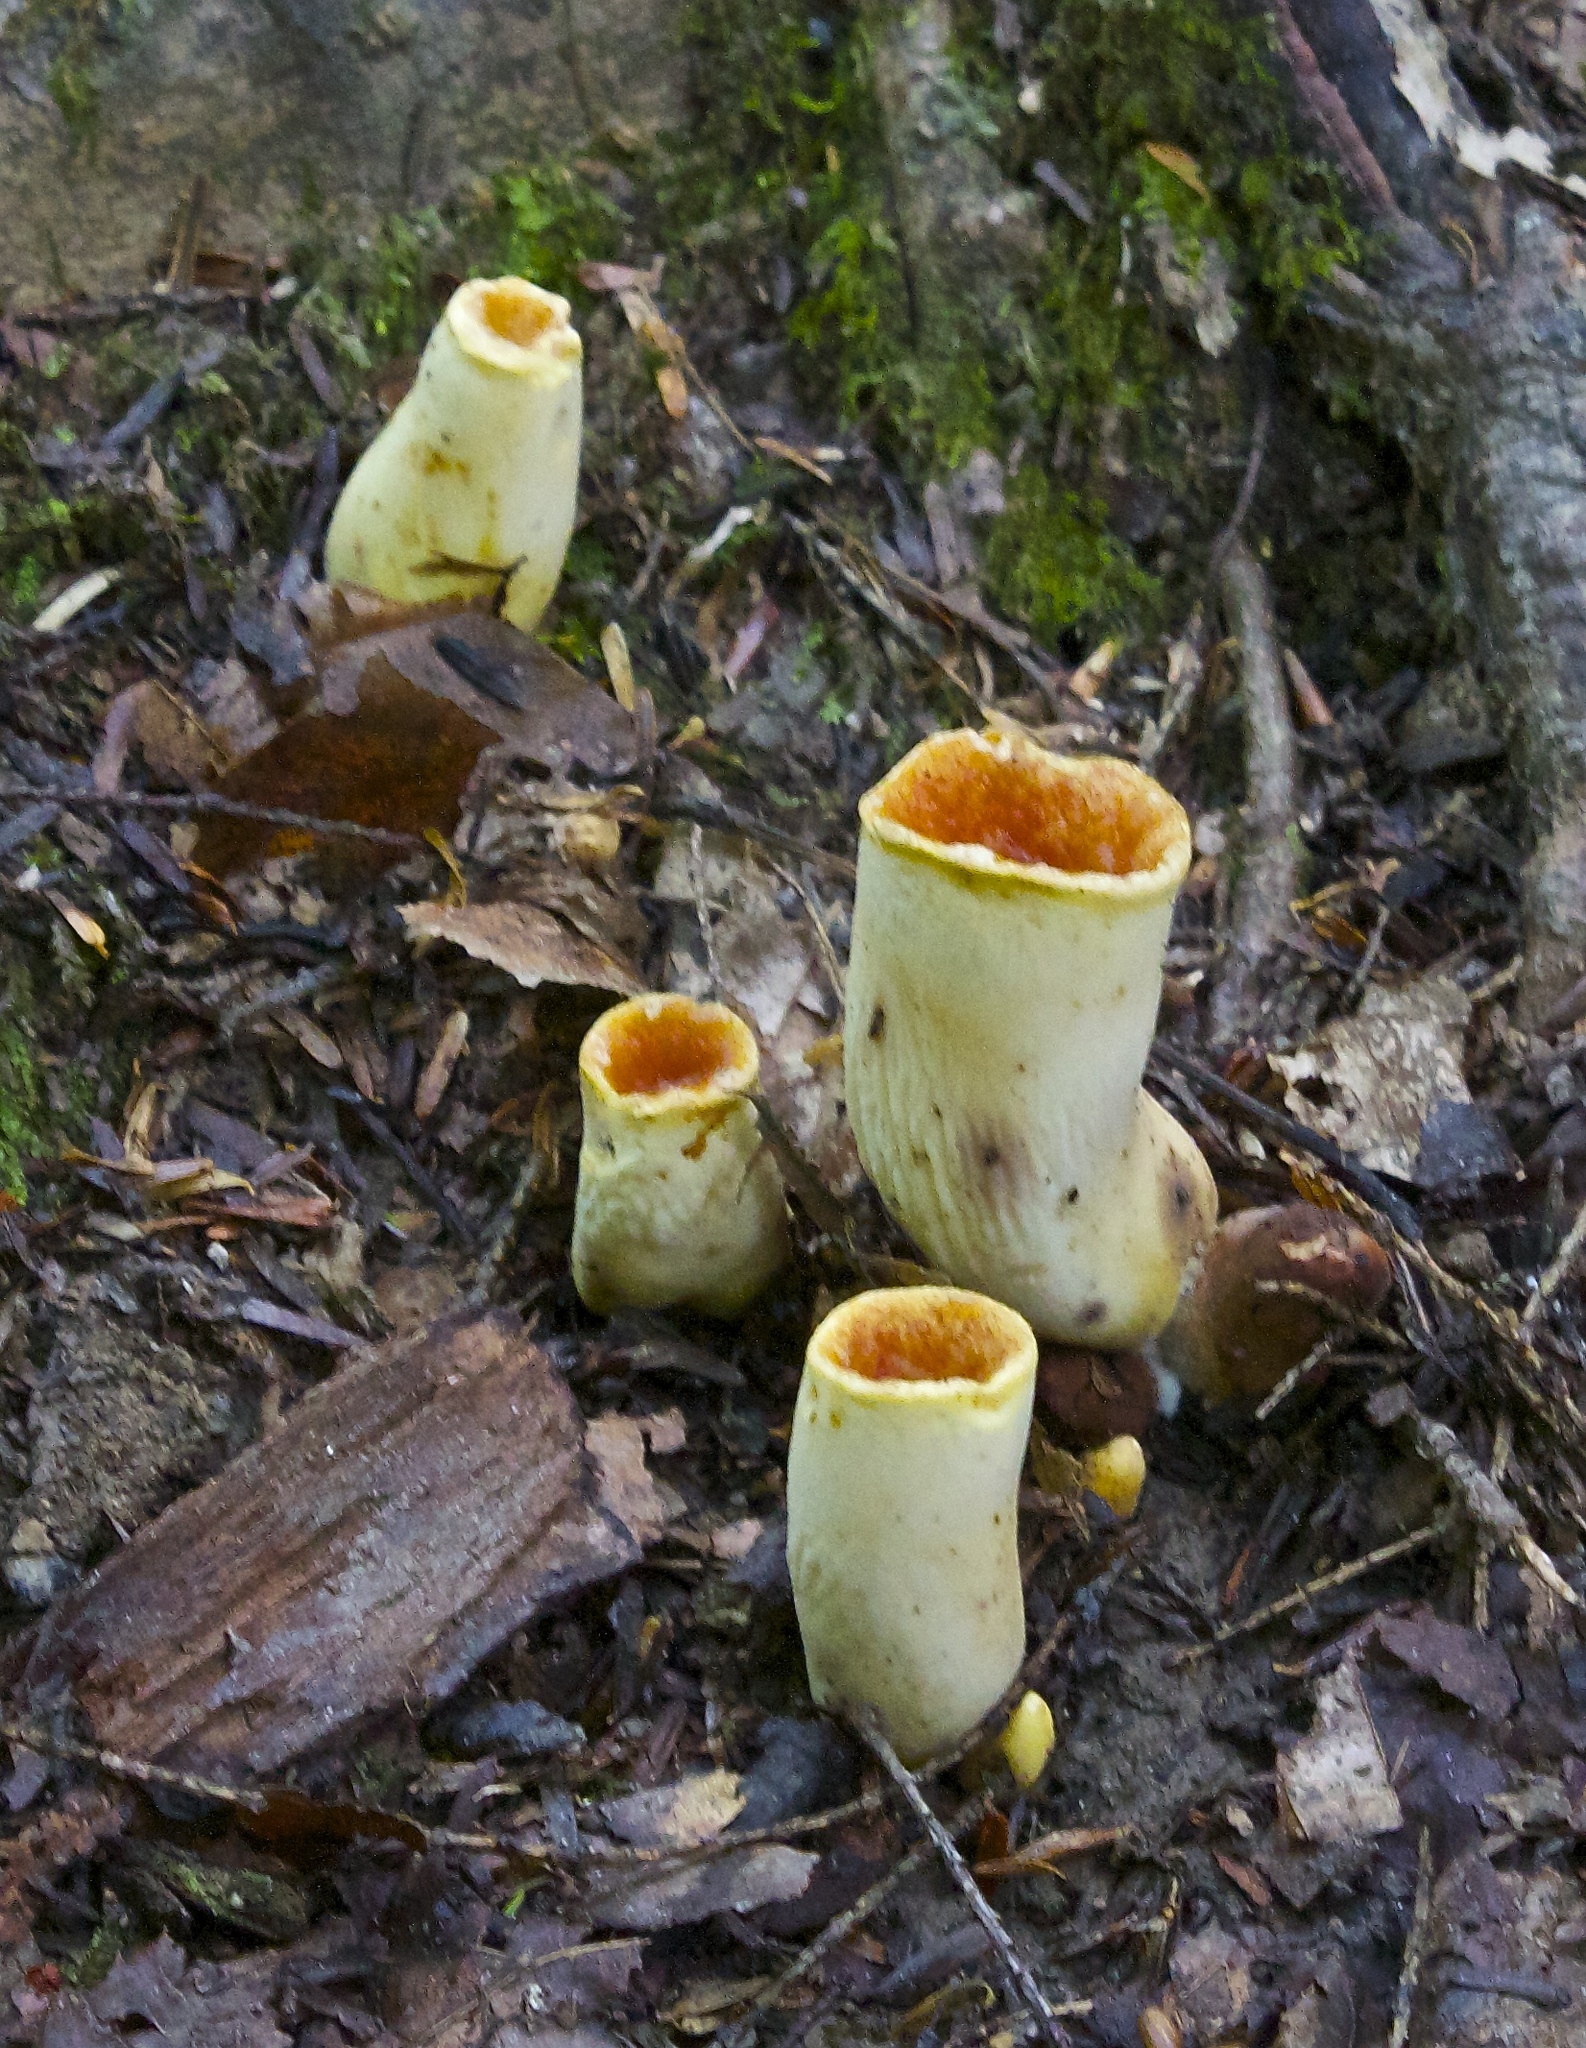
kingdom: Fungi
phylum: Basidiomycota
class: Agaricomycetes
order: Gomphales
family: Gomphaceae
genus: Turbinellus
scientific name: Turbinellus floccosus
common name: Scaly chanterelle
